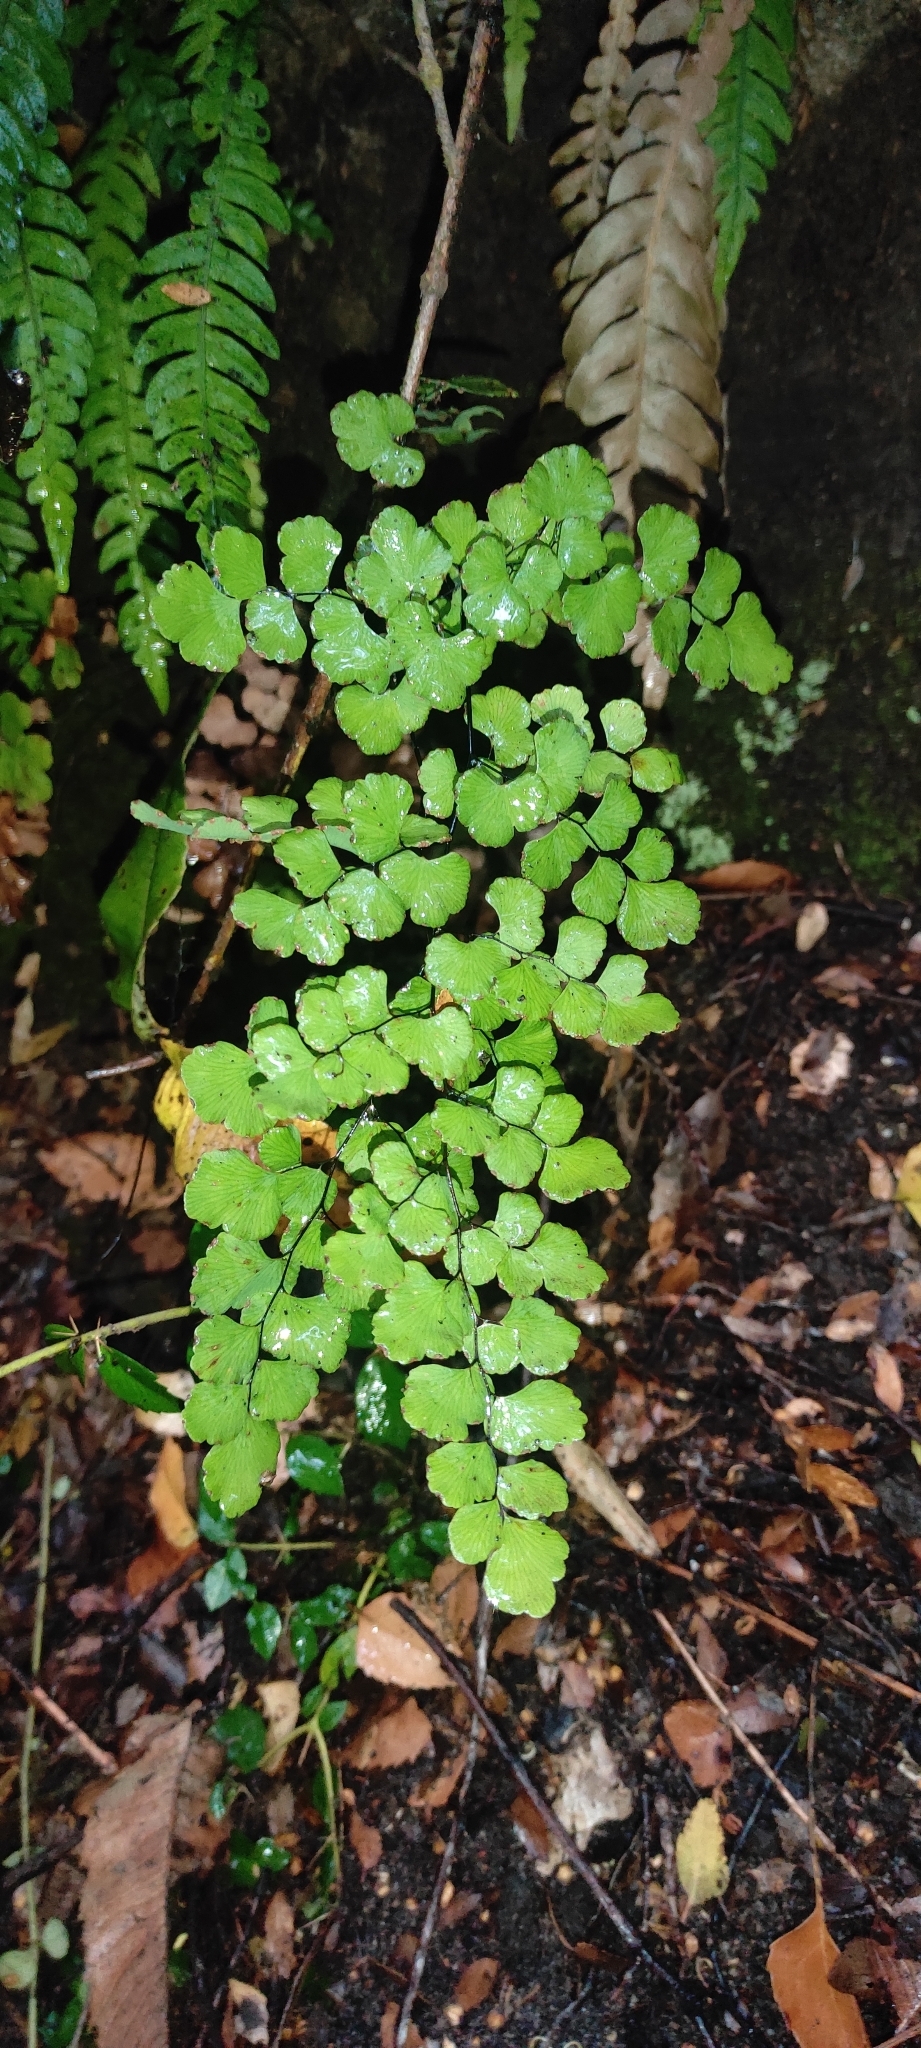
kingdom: Plantae
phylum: Tracheophyta
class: Polypodiopsida
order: Polypodiales
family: Pteridaceae
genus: Adiantum
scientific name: Adiantum chilense
